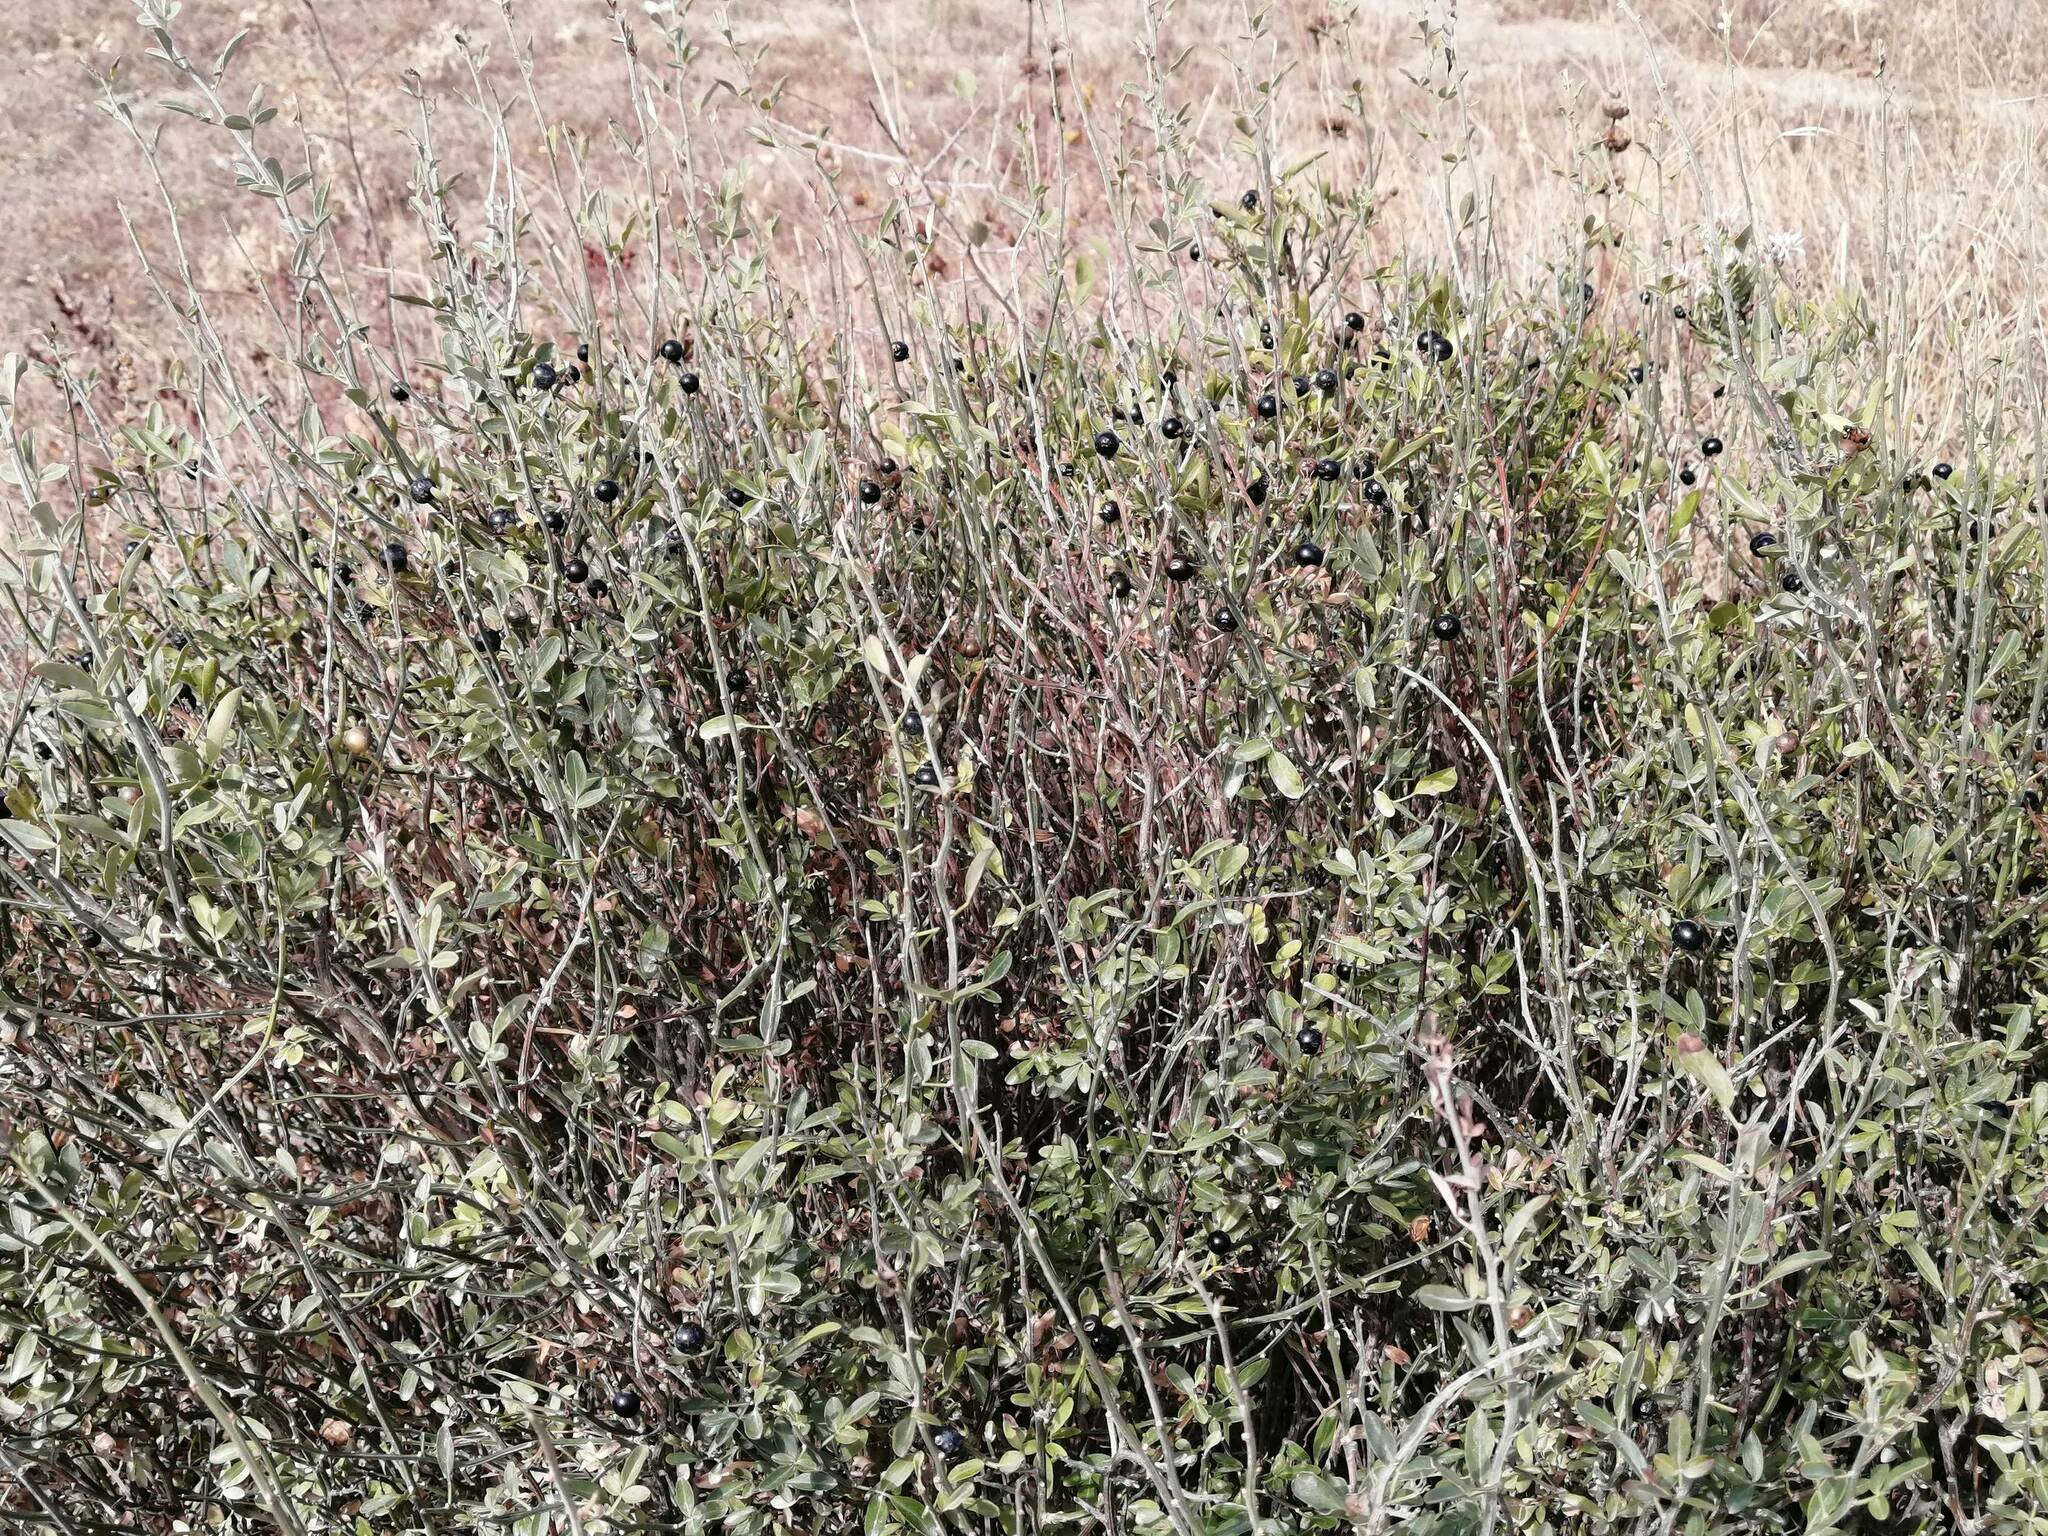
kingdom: Plantae
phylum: Tracheophyta
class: Magnoliopsida
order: Lamiales
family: Oleaceae
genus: Chrysojasminum
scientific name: Chrysojasminum fruticans
